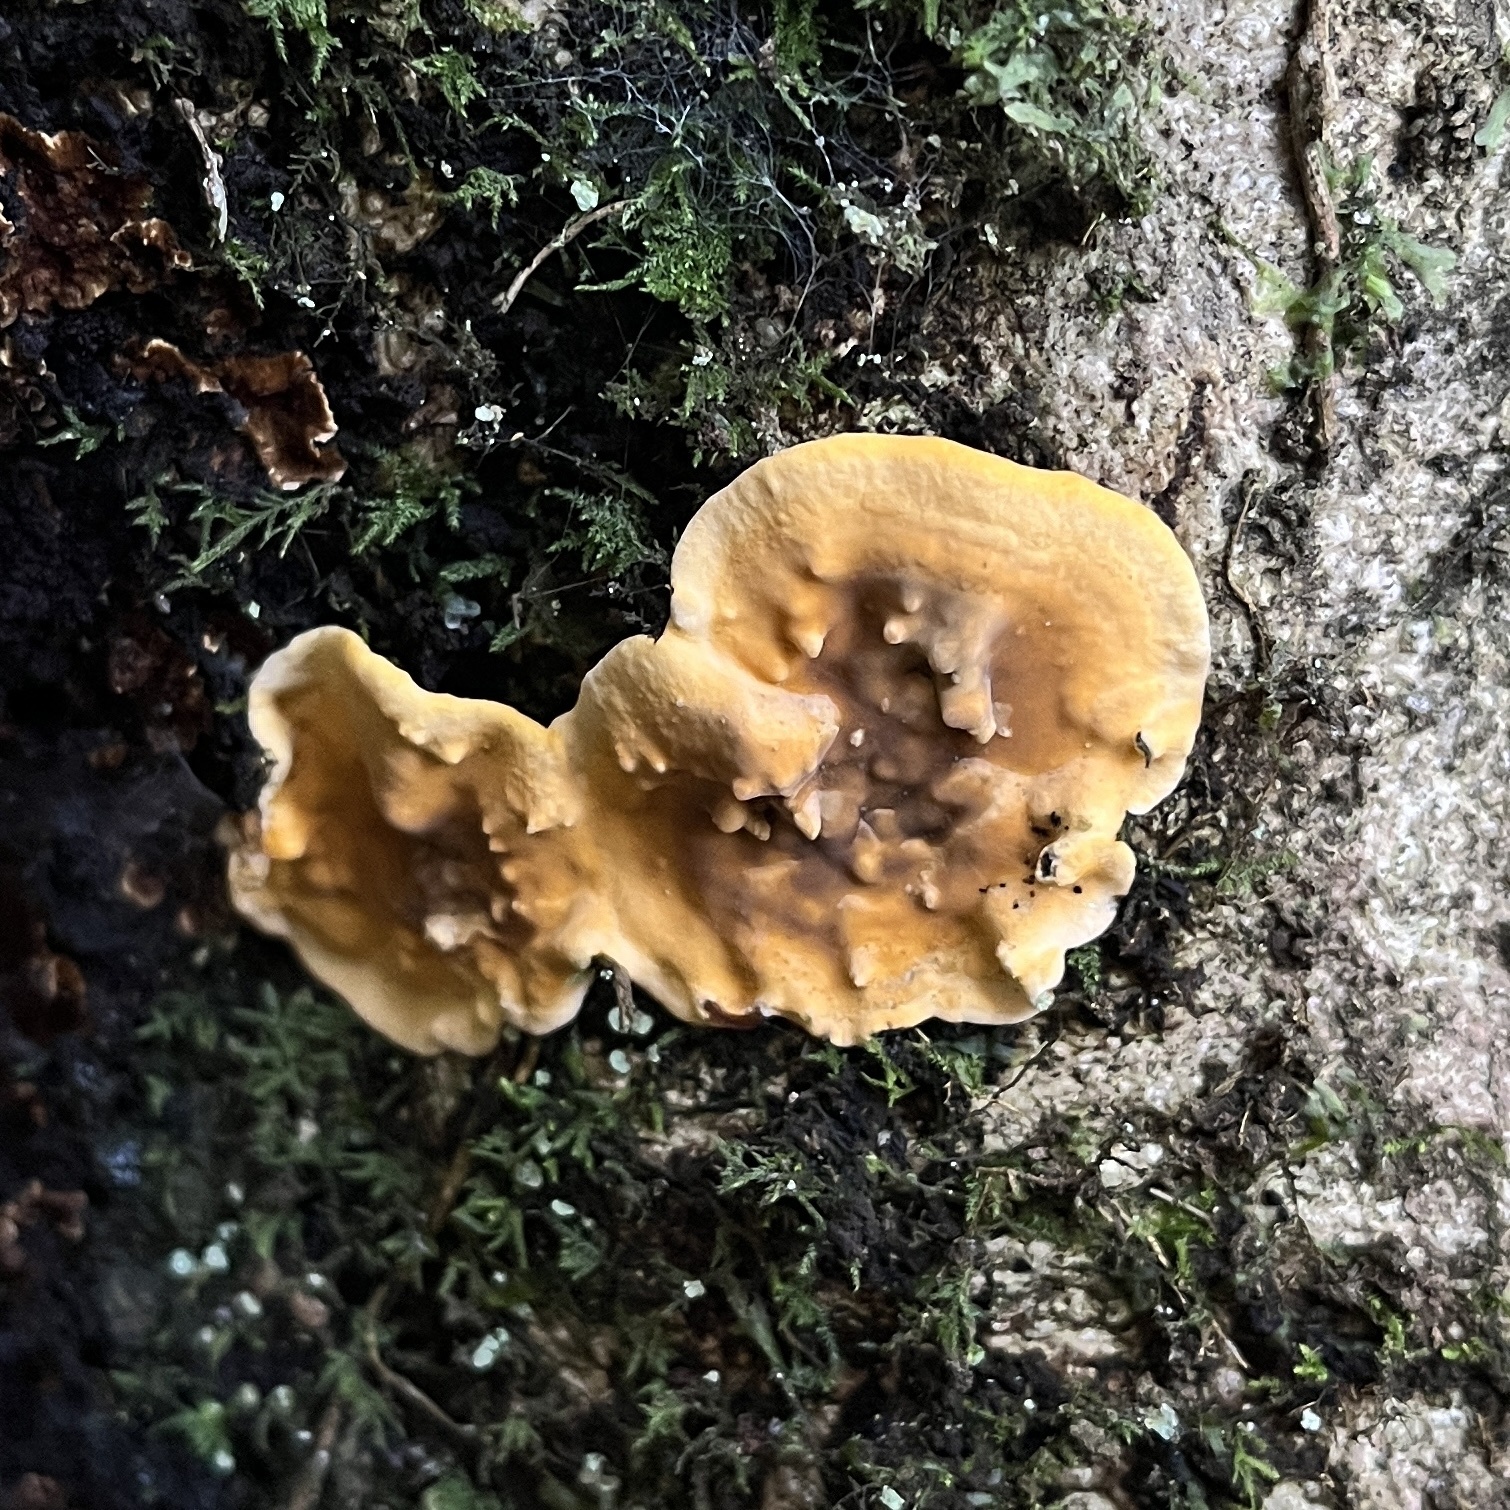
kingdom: Fungi
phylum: Basidiomycota
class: Agaricomycetes
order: Russulales
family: Stereaceae
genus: Stereum
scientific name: Stereum greslebiniae
